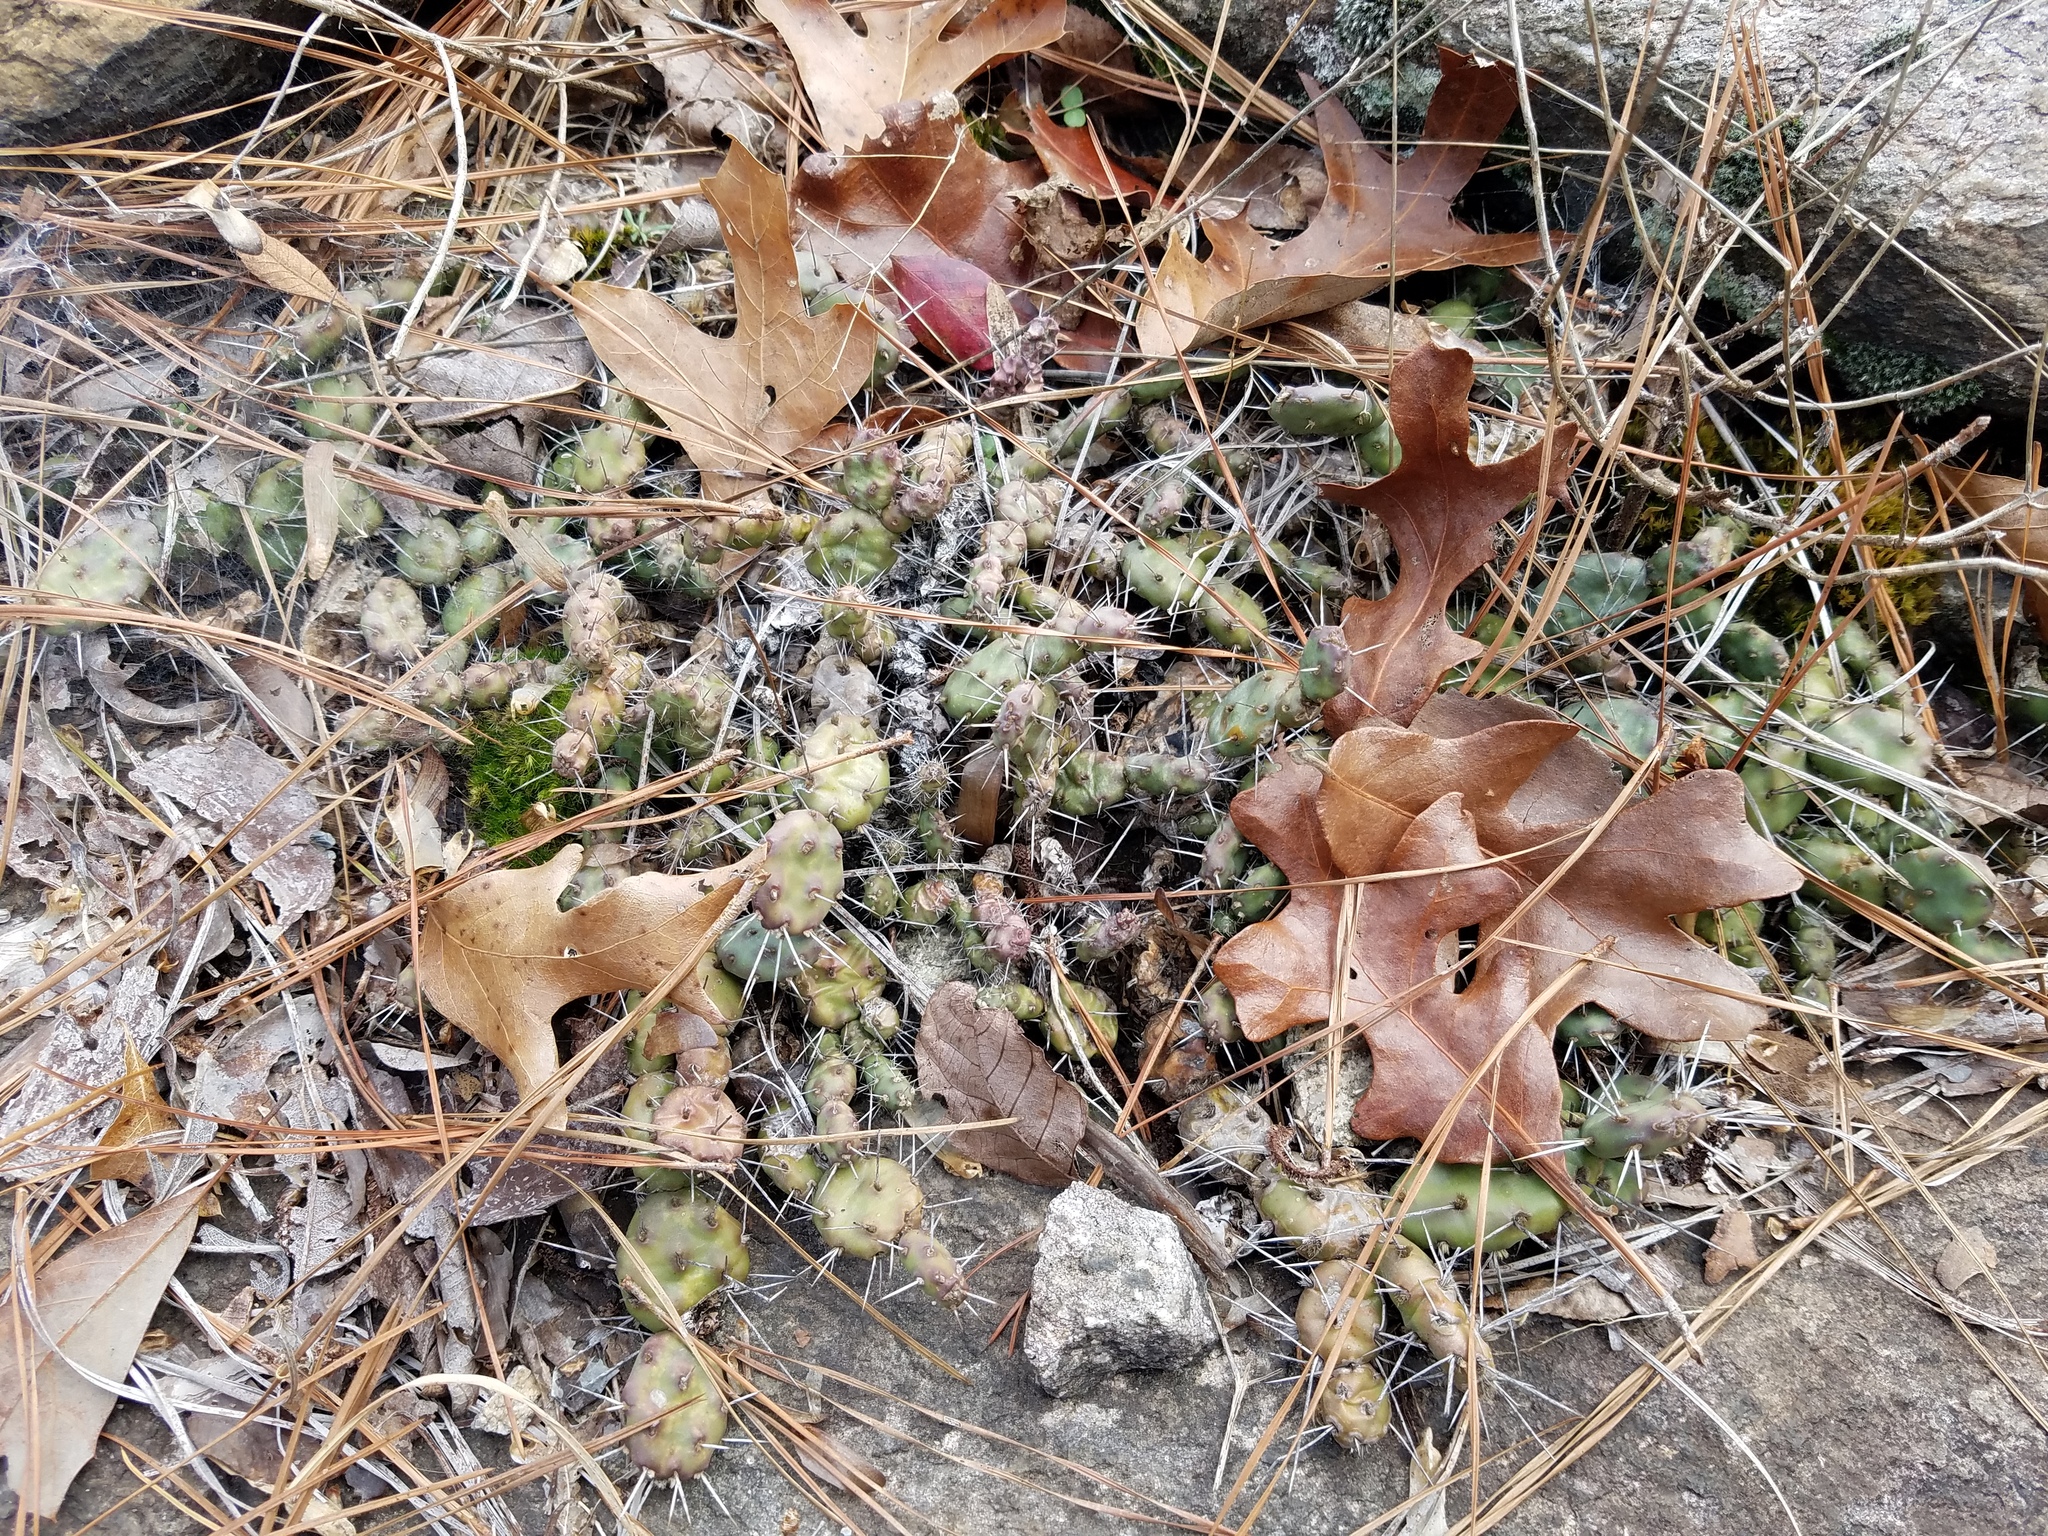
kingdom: Plantae
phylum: Tracheophyta
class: Magnoliopsida
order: Caryophyllales
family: Cactaceae
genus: Opuntia
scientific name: Opuntia drummondii
